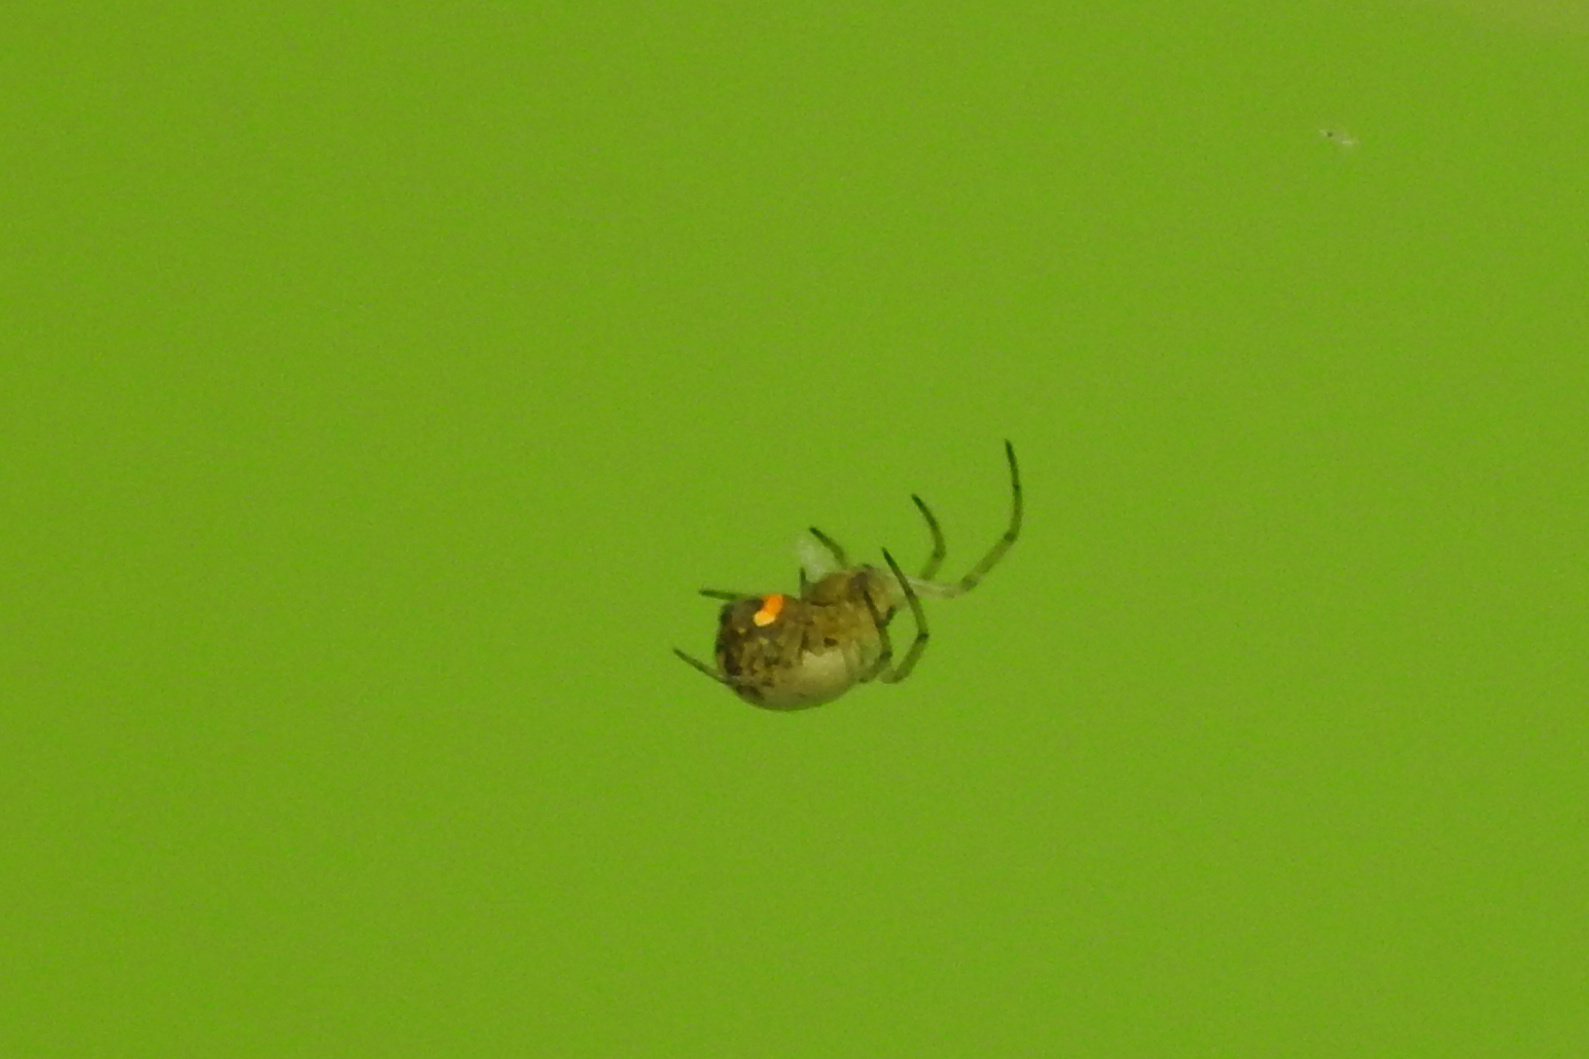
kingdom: Animalia
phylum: Arthropoda
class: Arachnida
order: Araneae
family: Tetragnathidae
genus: Leucauge
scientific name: Leucauge venusta
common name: Longjawed orb weavers
